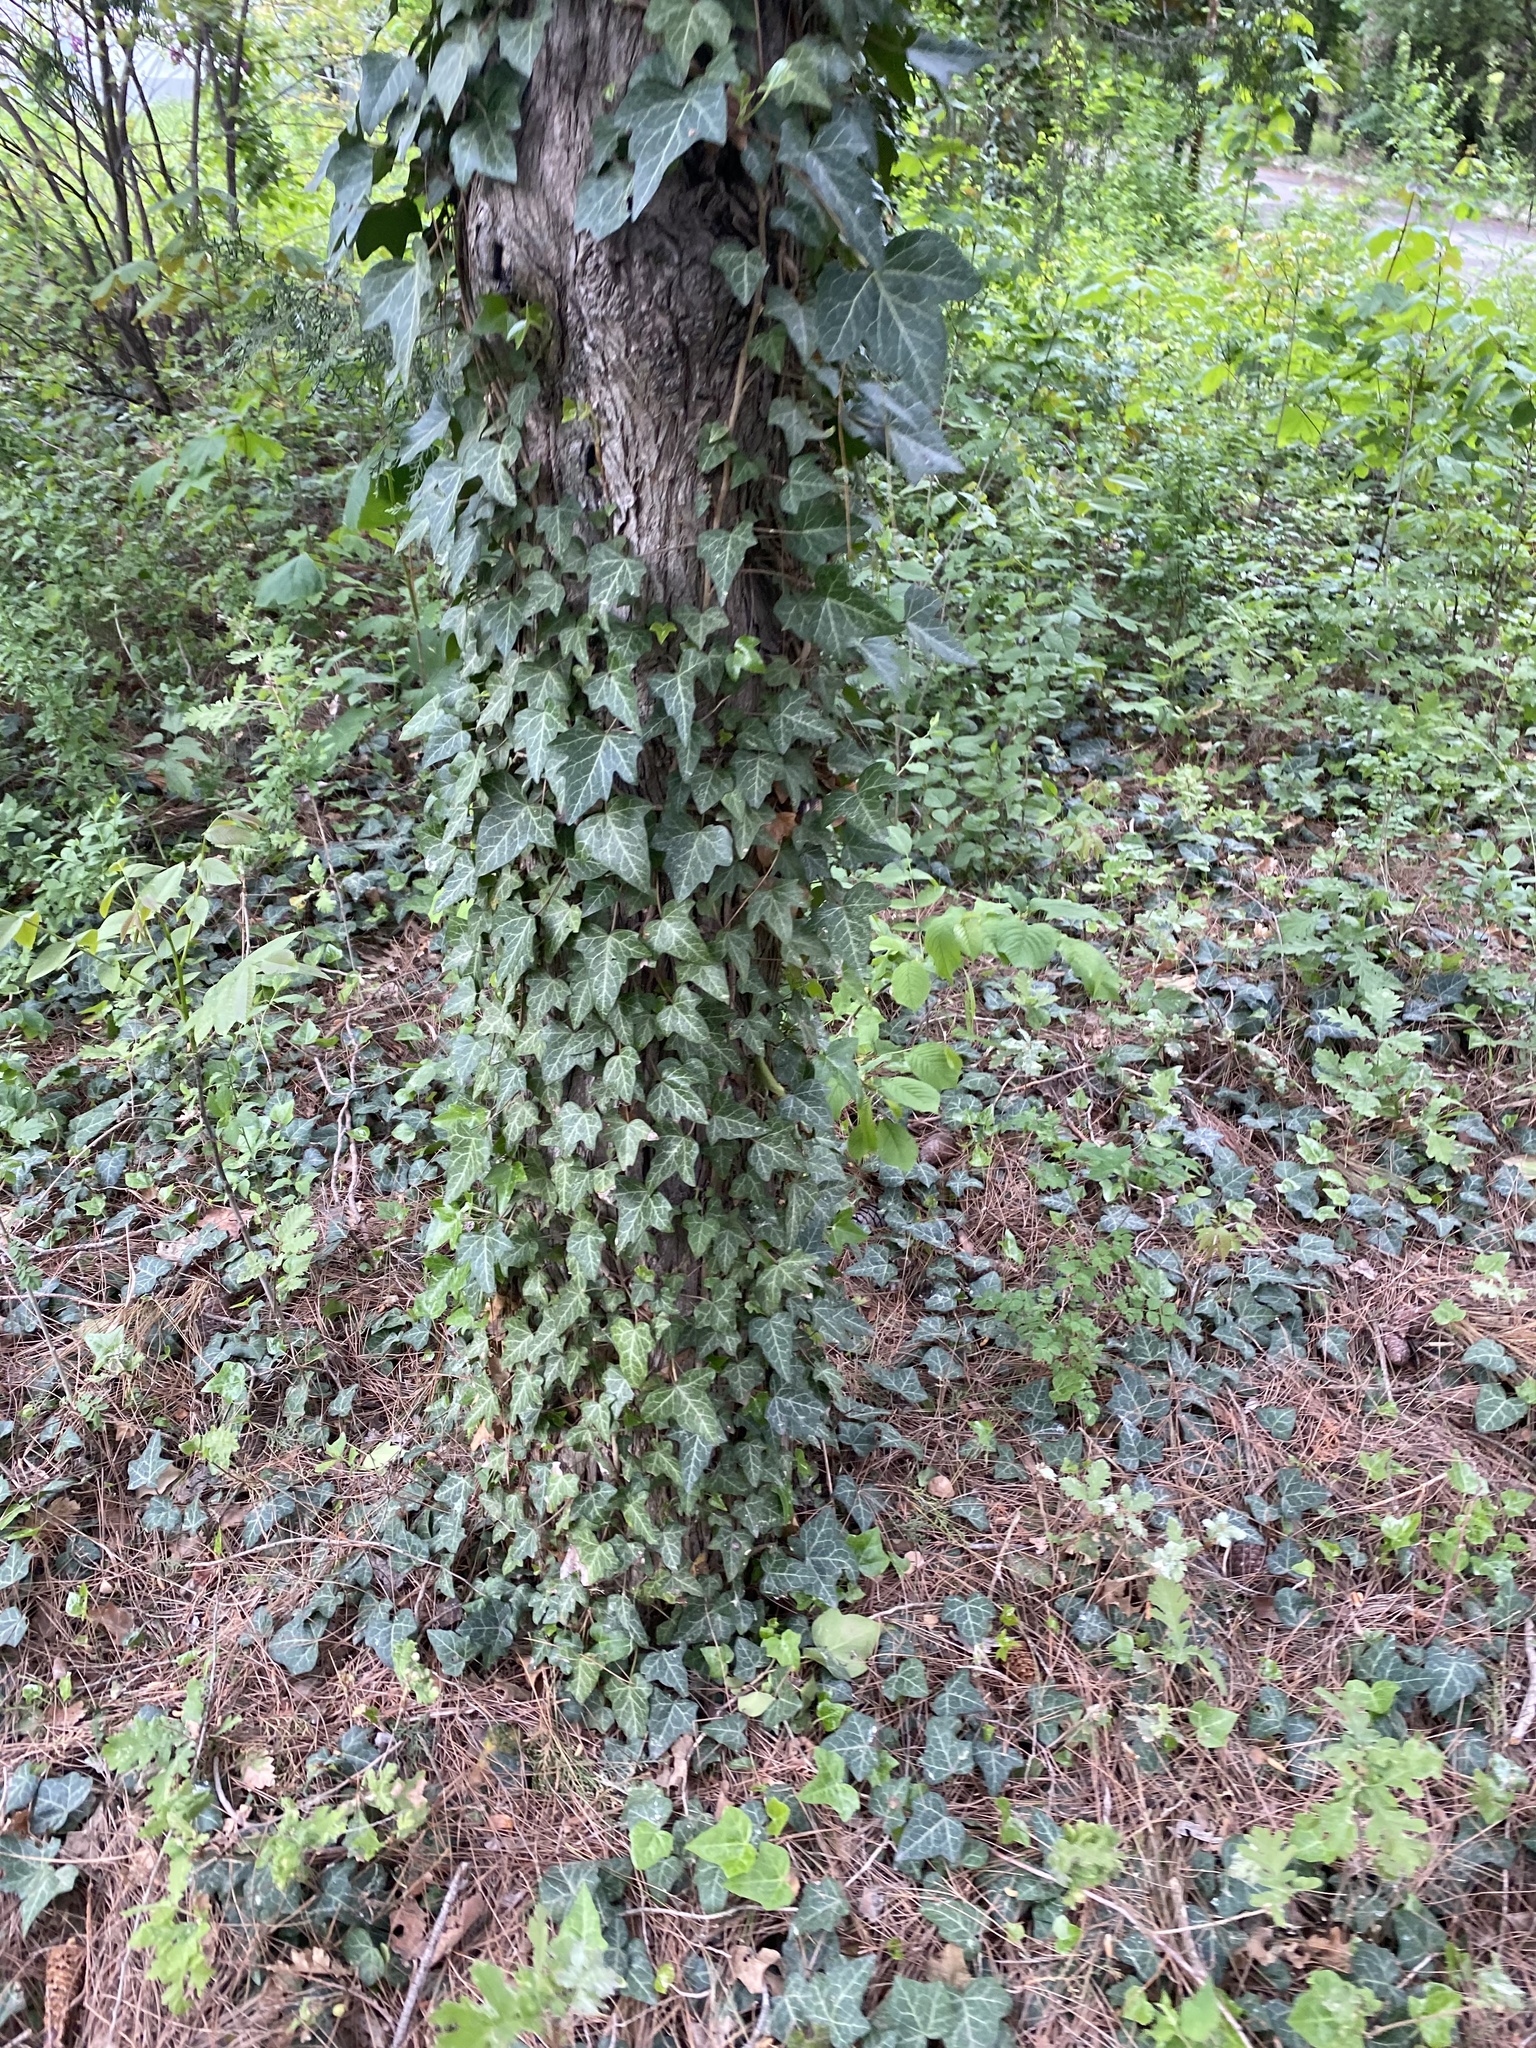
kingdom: Plantae
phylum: Tracheophyta
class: Magnoliopsida
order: Apiales
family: Araliaceae
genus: Hedera
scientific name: Hedera helix
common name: Ivy
